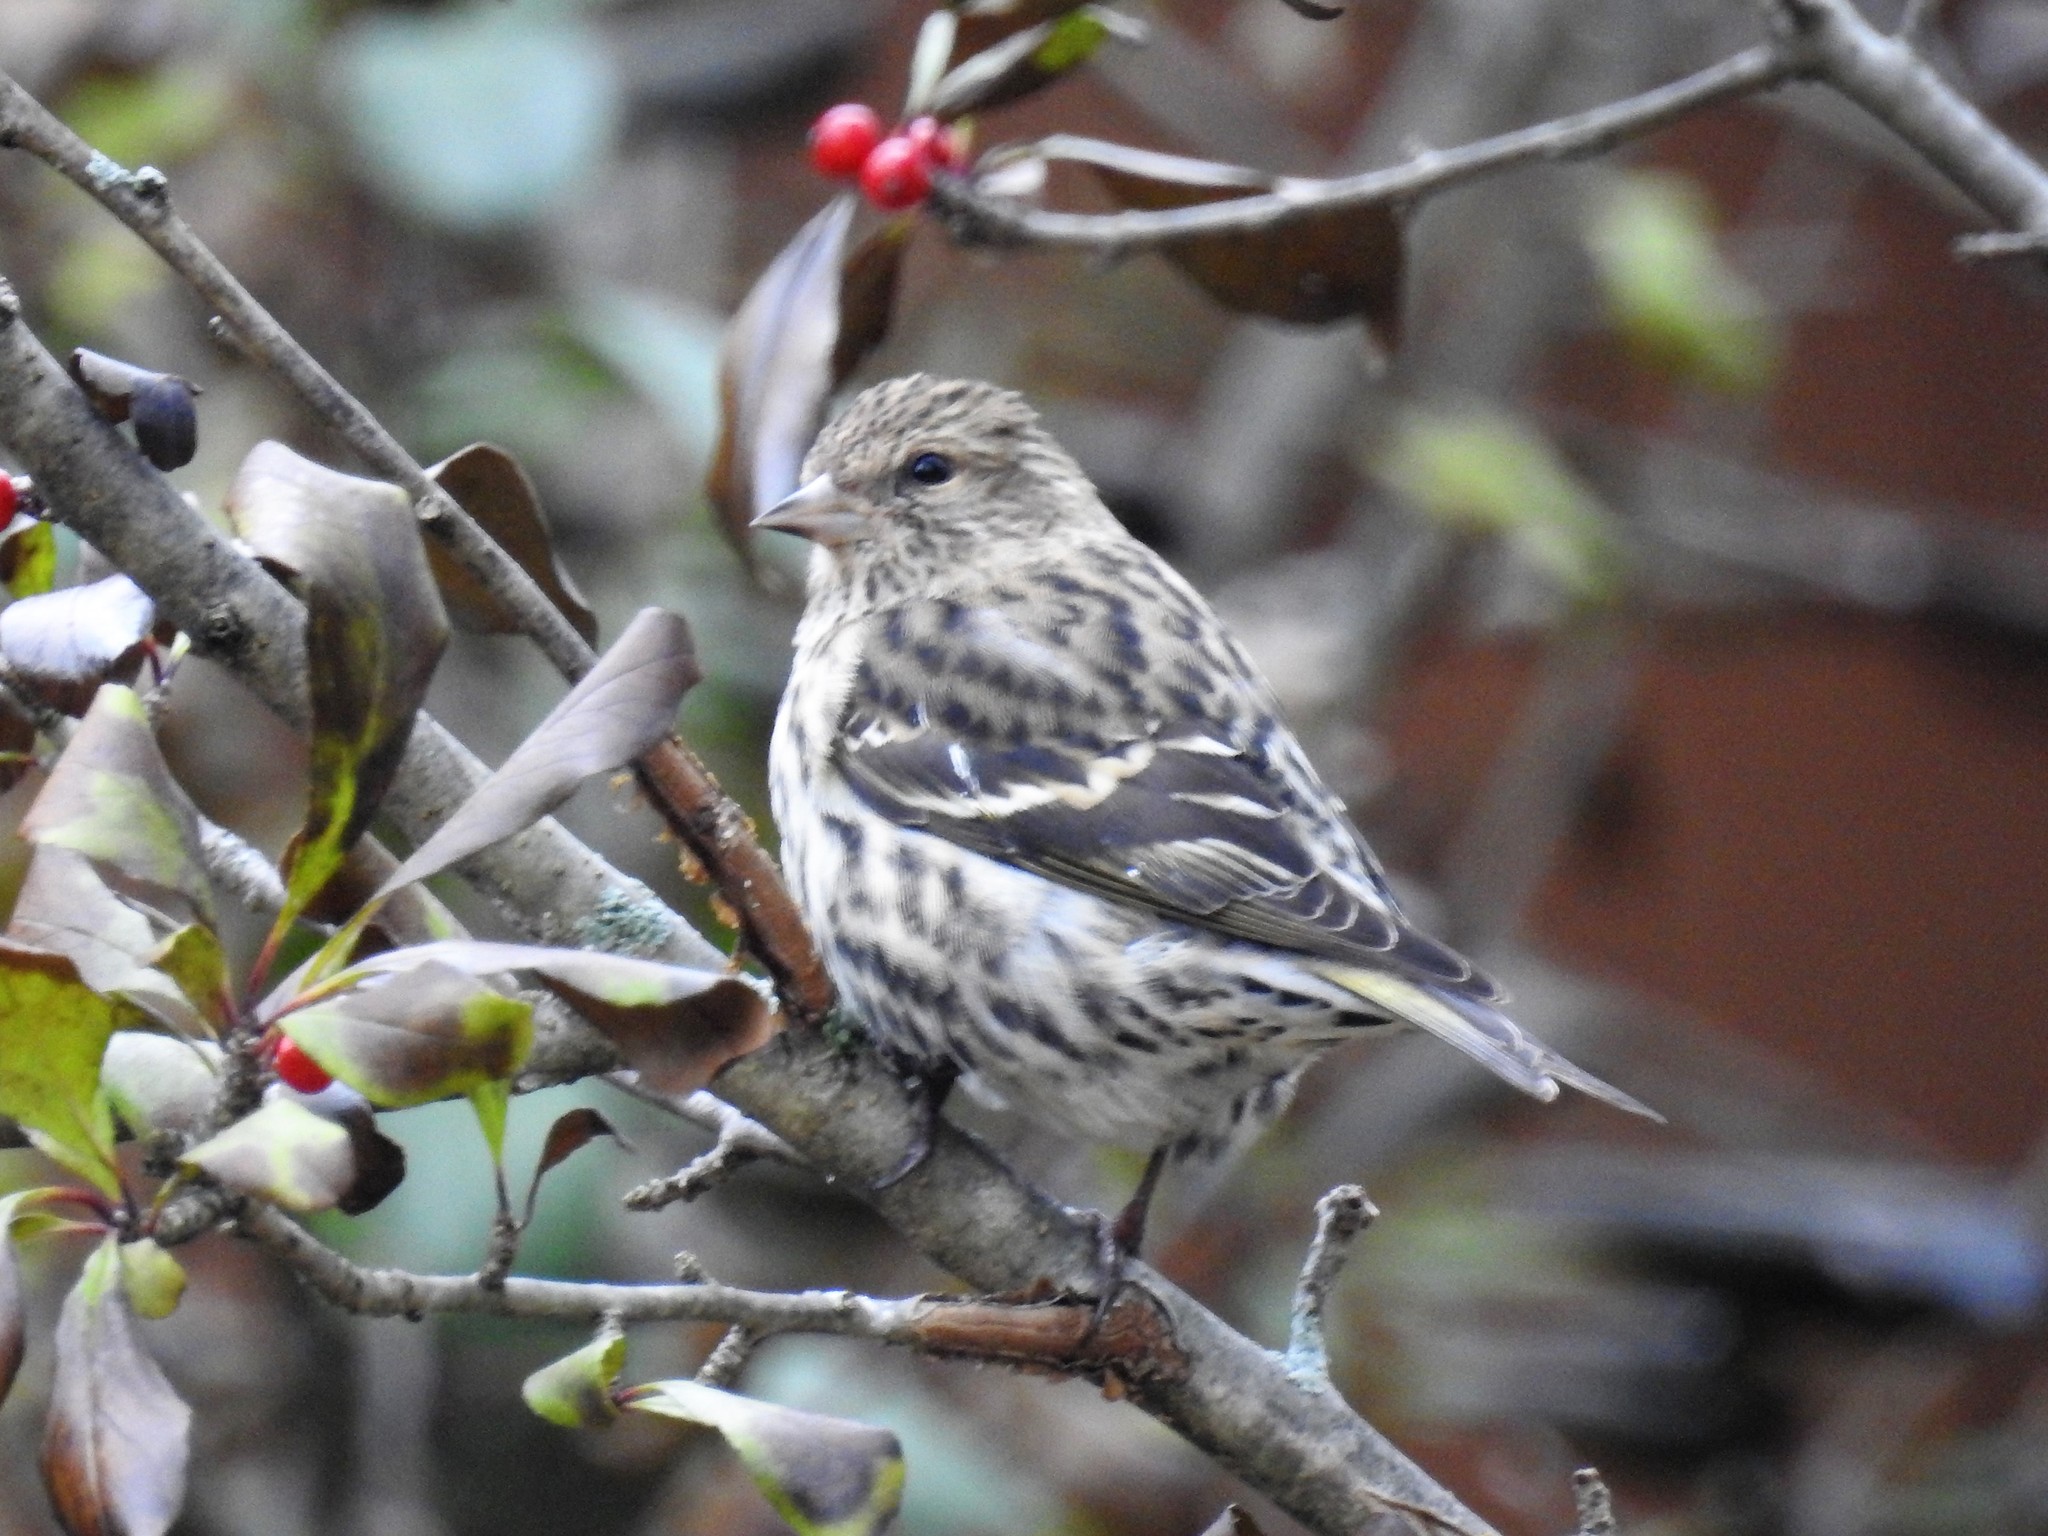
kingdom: Animalia
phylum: Chordata
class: Aves
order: Passeriformes
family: Fringillidae
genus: Spinus
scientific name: Spinus pinus
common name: Pine siskin
